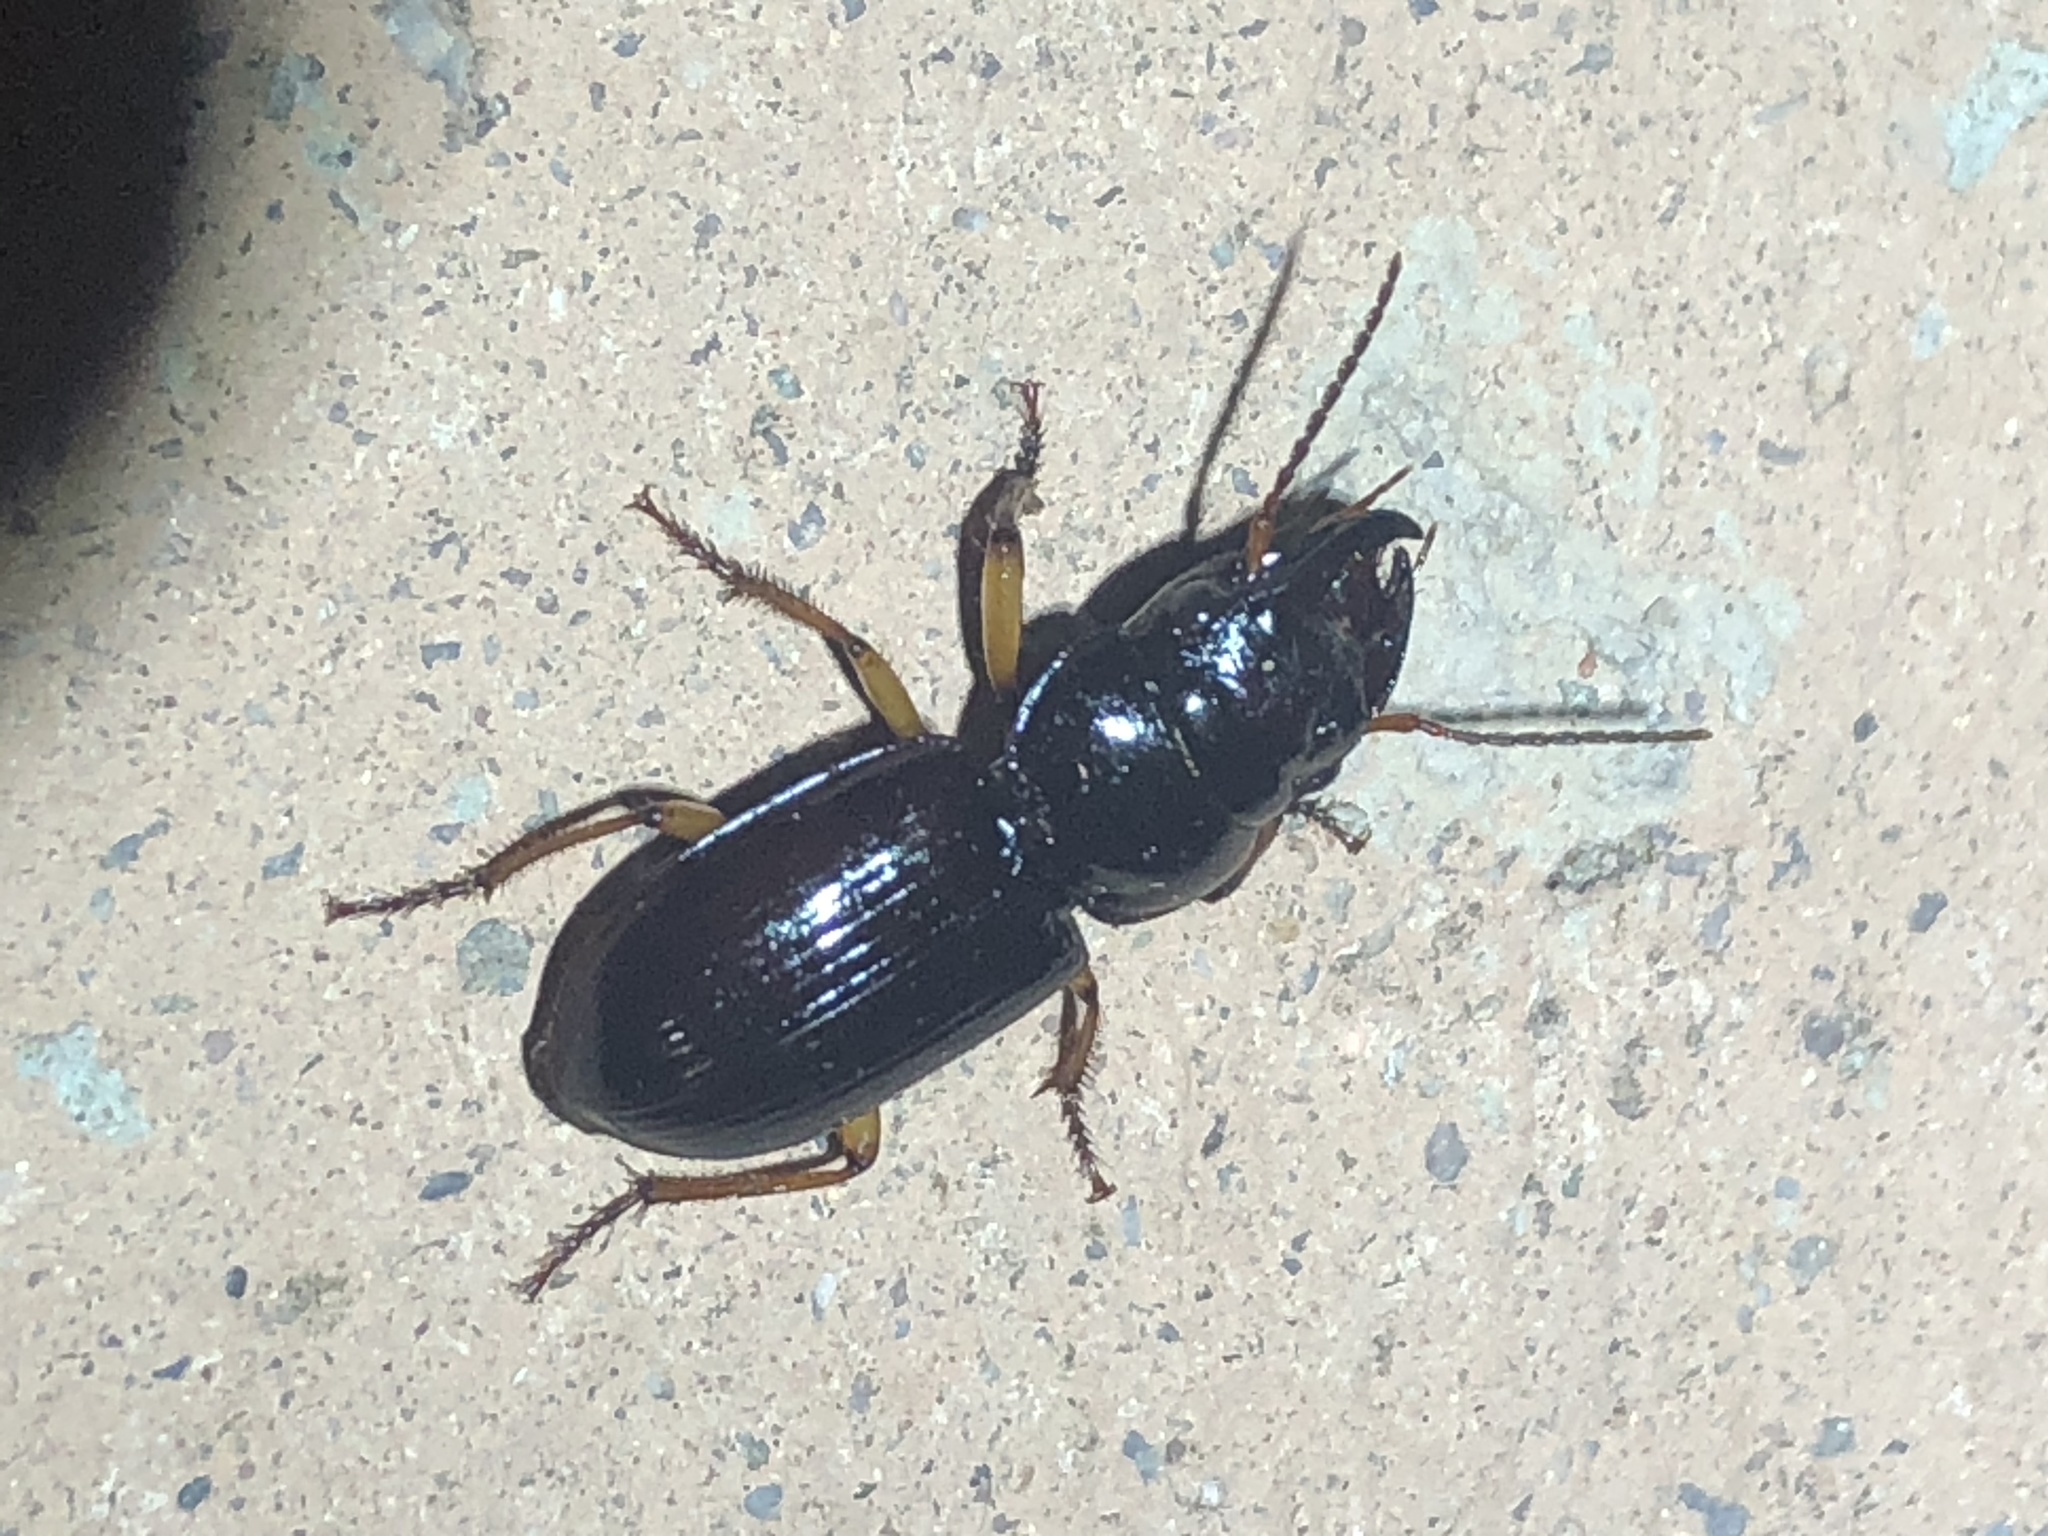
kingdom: Animalia
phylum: Arthropoda
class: Insecta
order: Coleoptera
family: Carabidae
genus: Polpochila
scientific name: Polpochila erro
